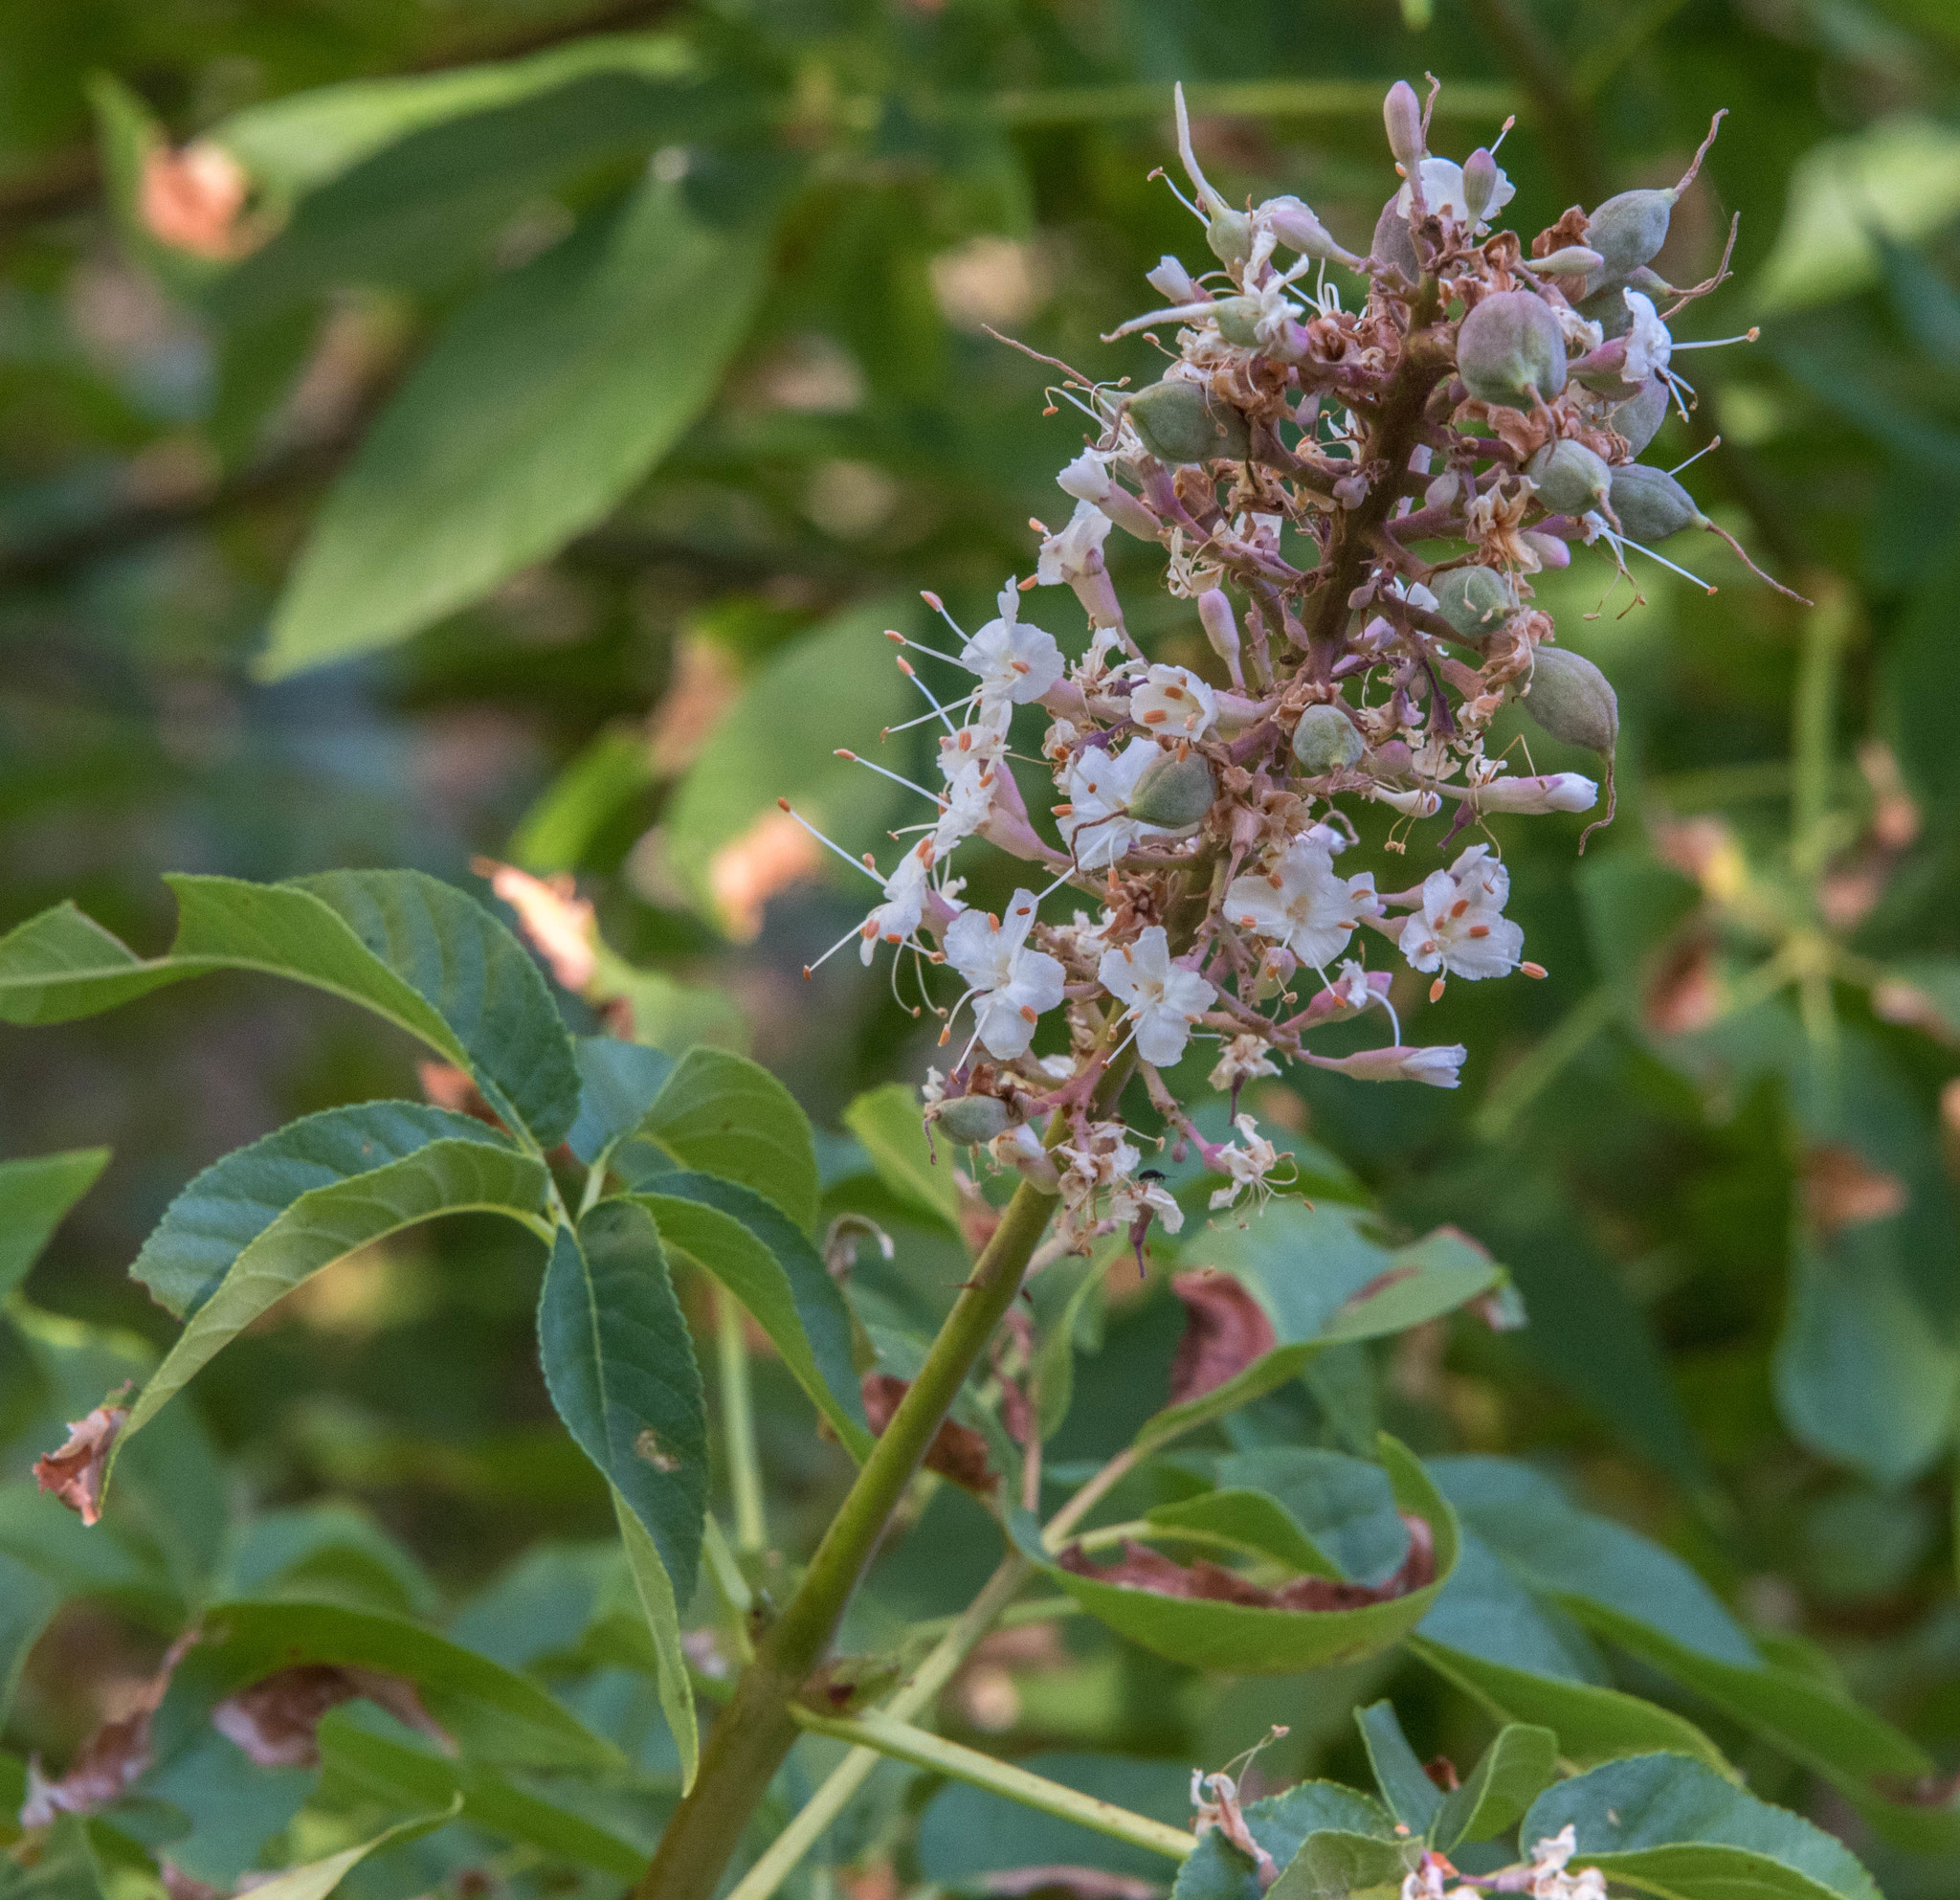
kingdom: Plantae
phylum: Tracheophyta
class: Magnoliopsida
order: Sapindales
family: Sapindaceae
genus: Aesculus
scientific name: Aesculus californica
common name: California buckeye
